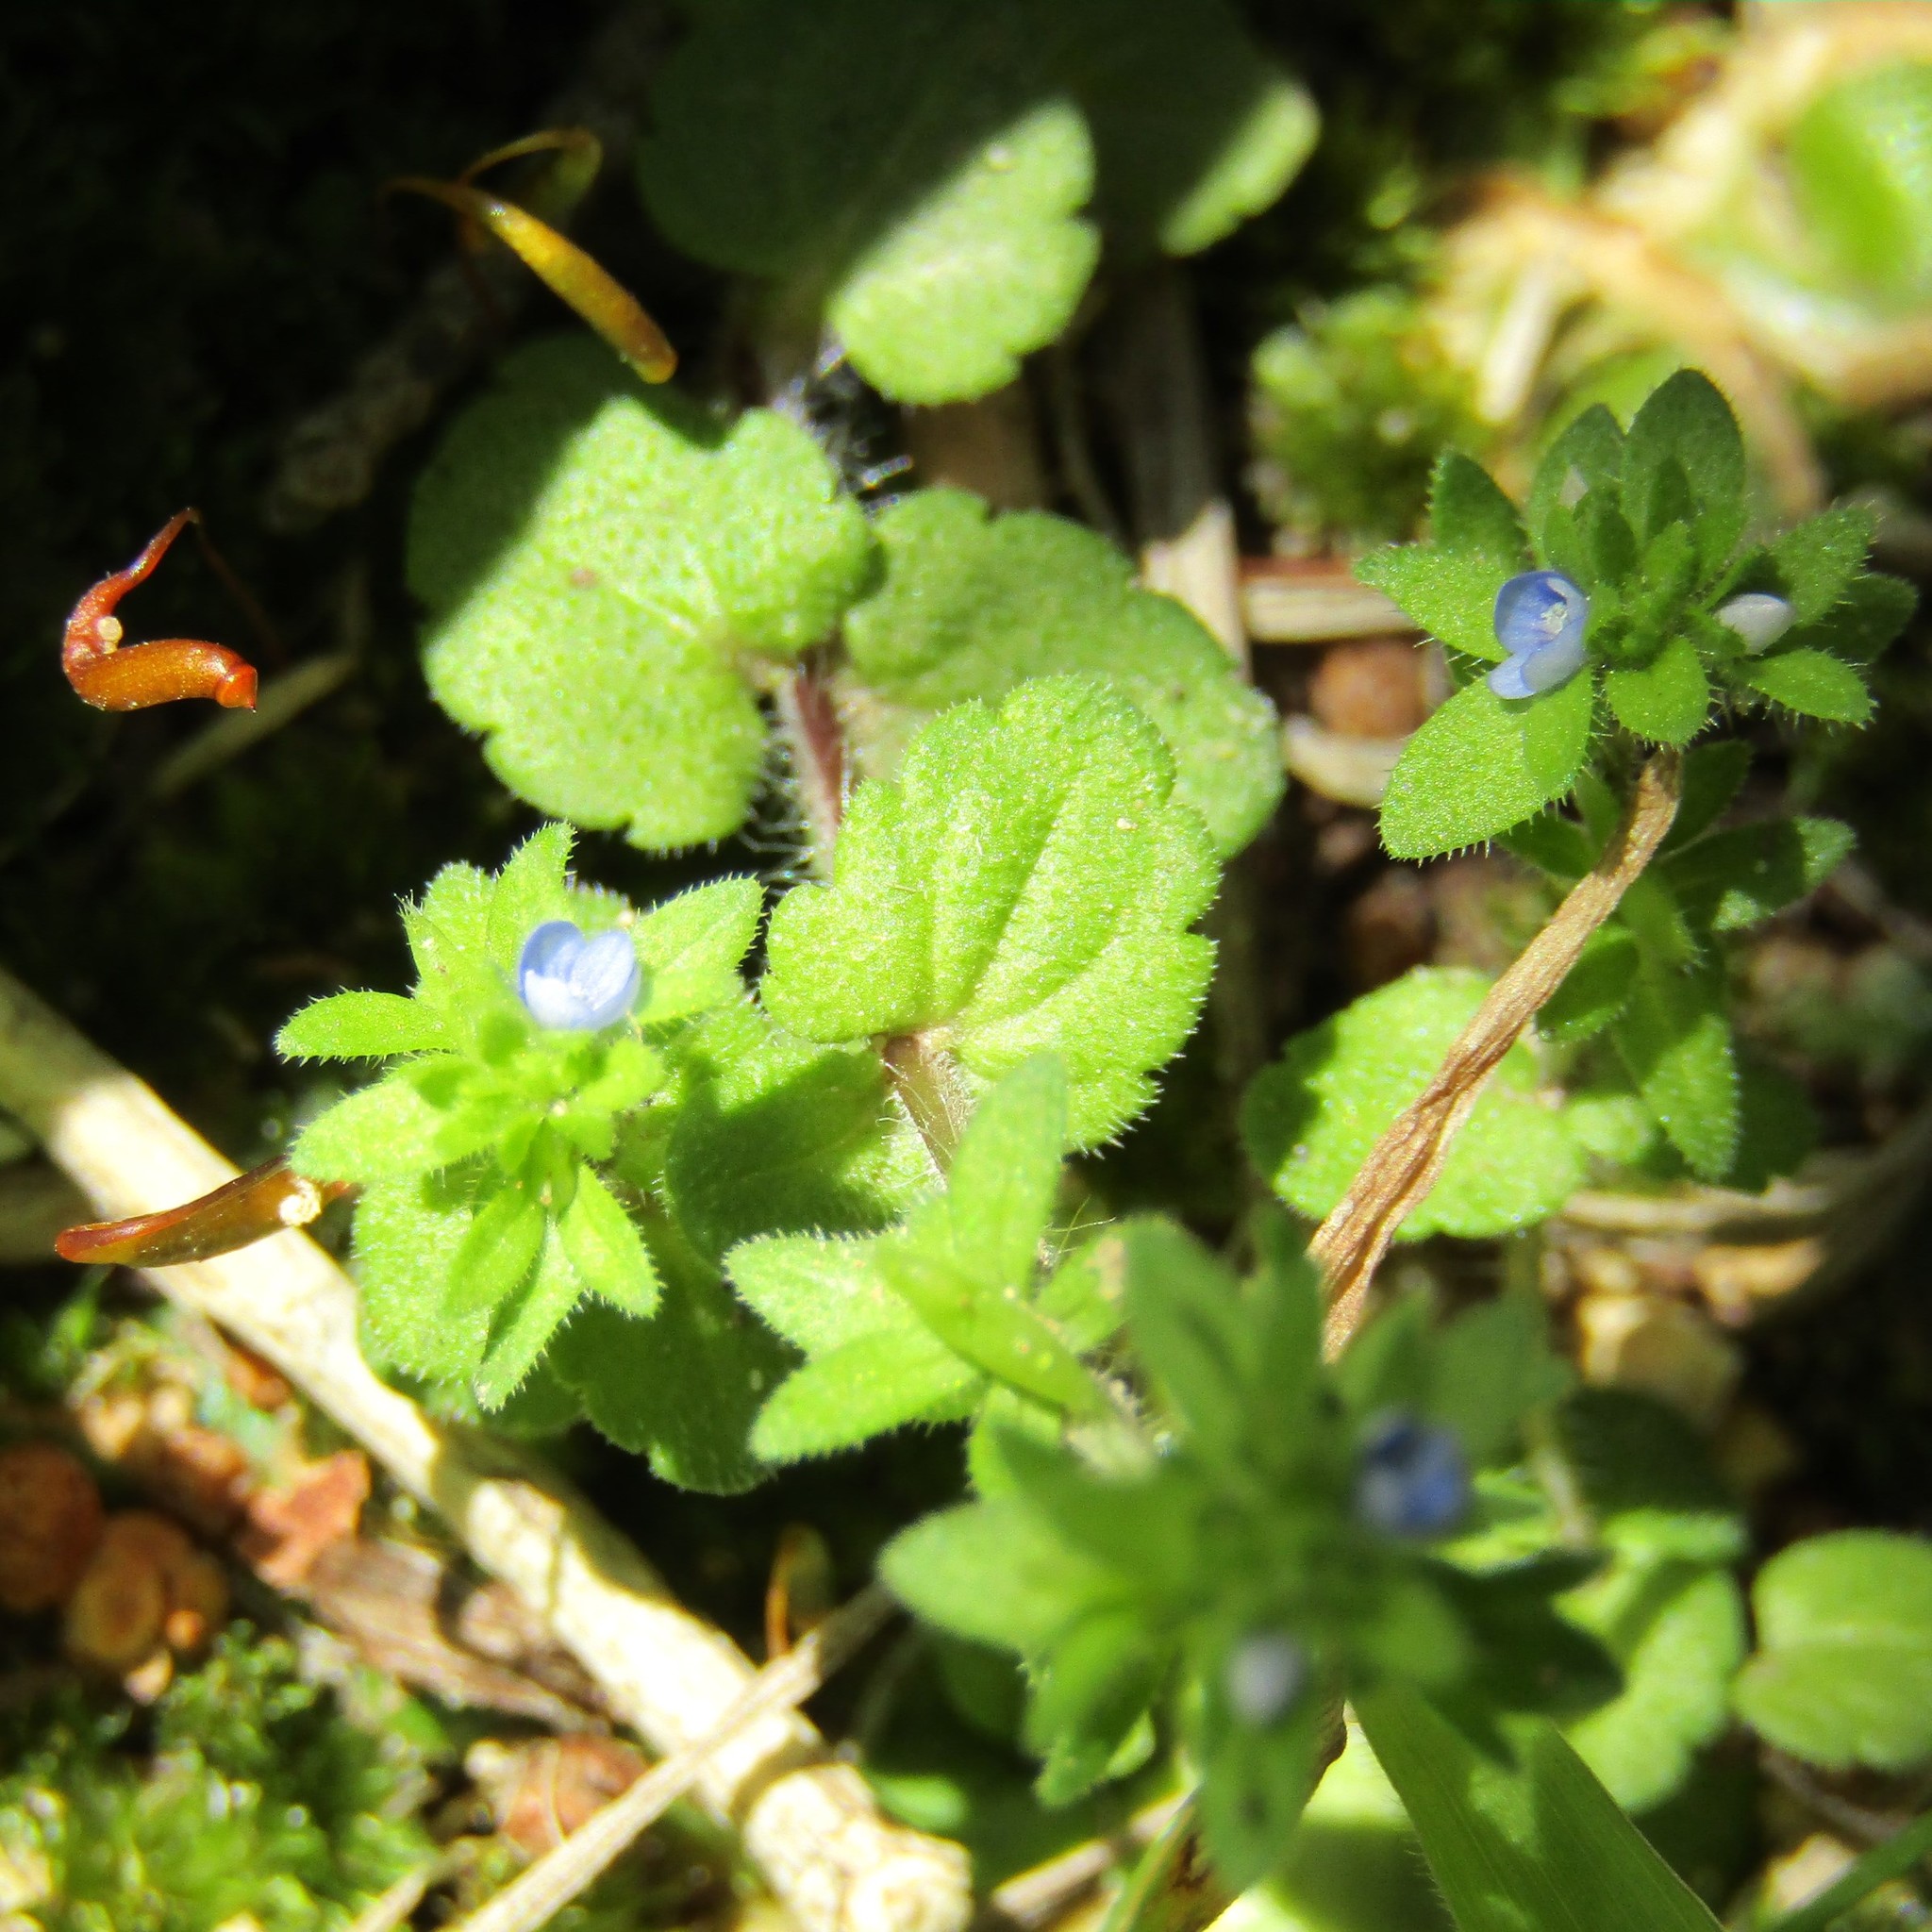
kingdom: Plantae
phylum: Tracheophyta
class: Magnoliopsida
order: Lamiales
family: Plantaginaceae
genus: Veronica
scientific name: Veronica arvensis
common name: Corn speedwell
